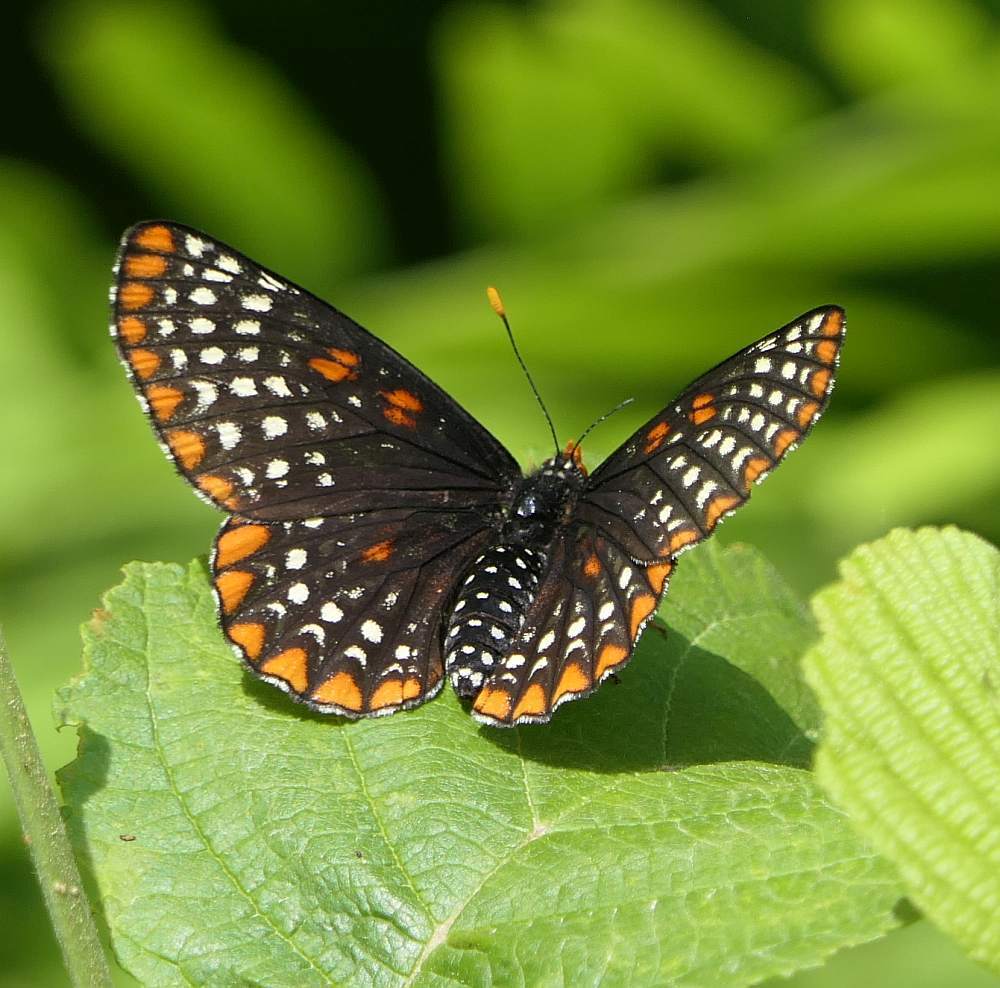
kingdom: Animalia
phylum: Arthropoda
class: Insecta
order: Lepidoptera
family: Nymphalidae
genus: Euphydryas
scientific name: Euphydryas phaeton
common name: Baltimore checkerspot
